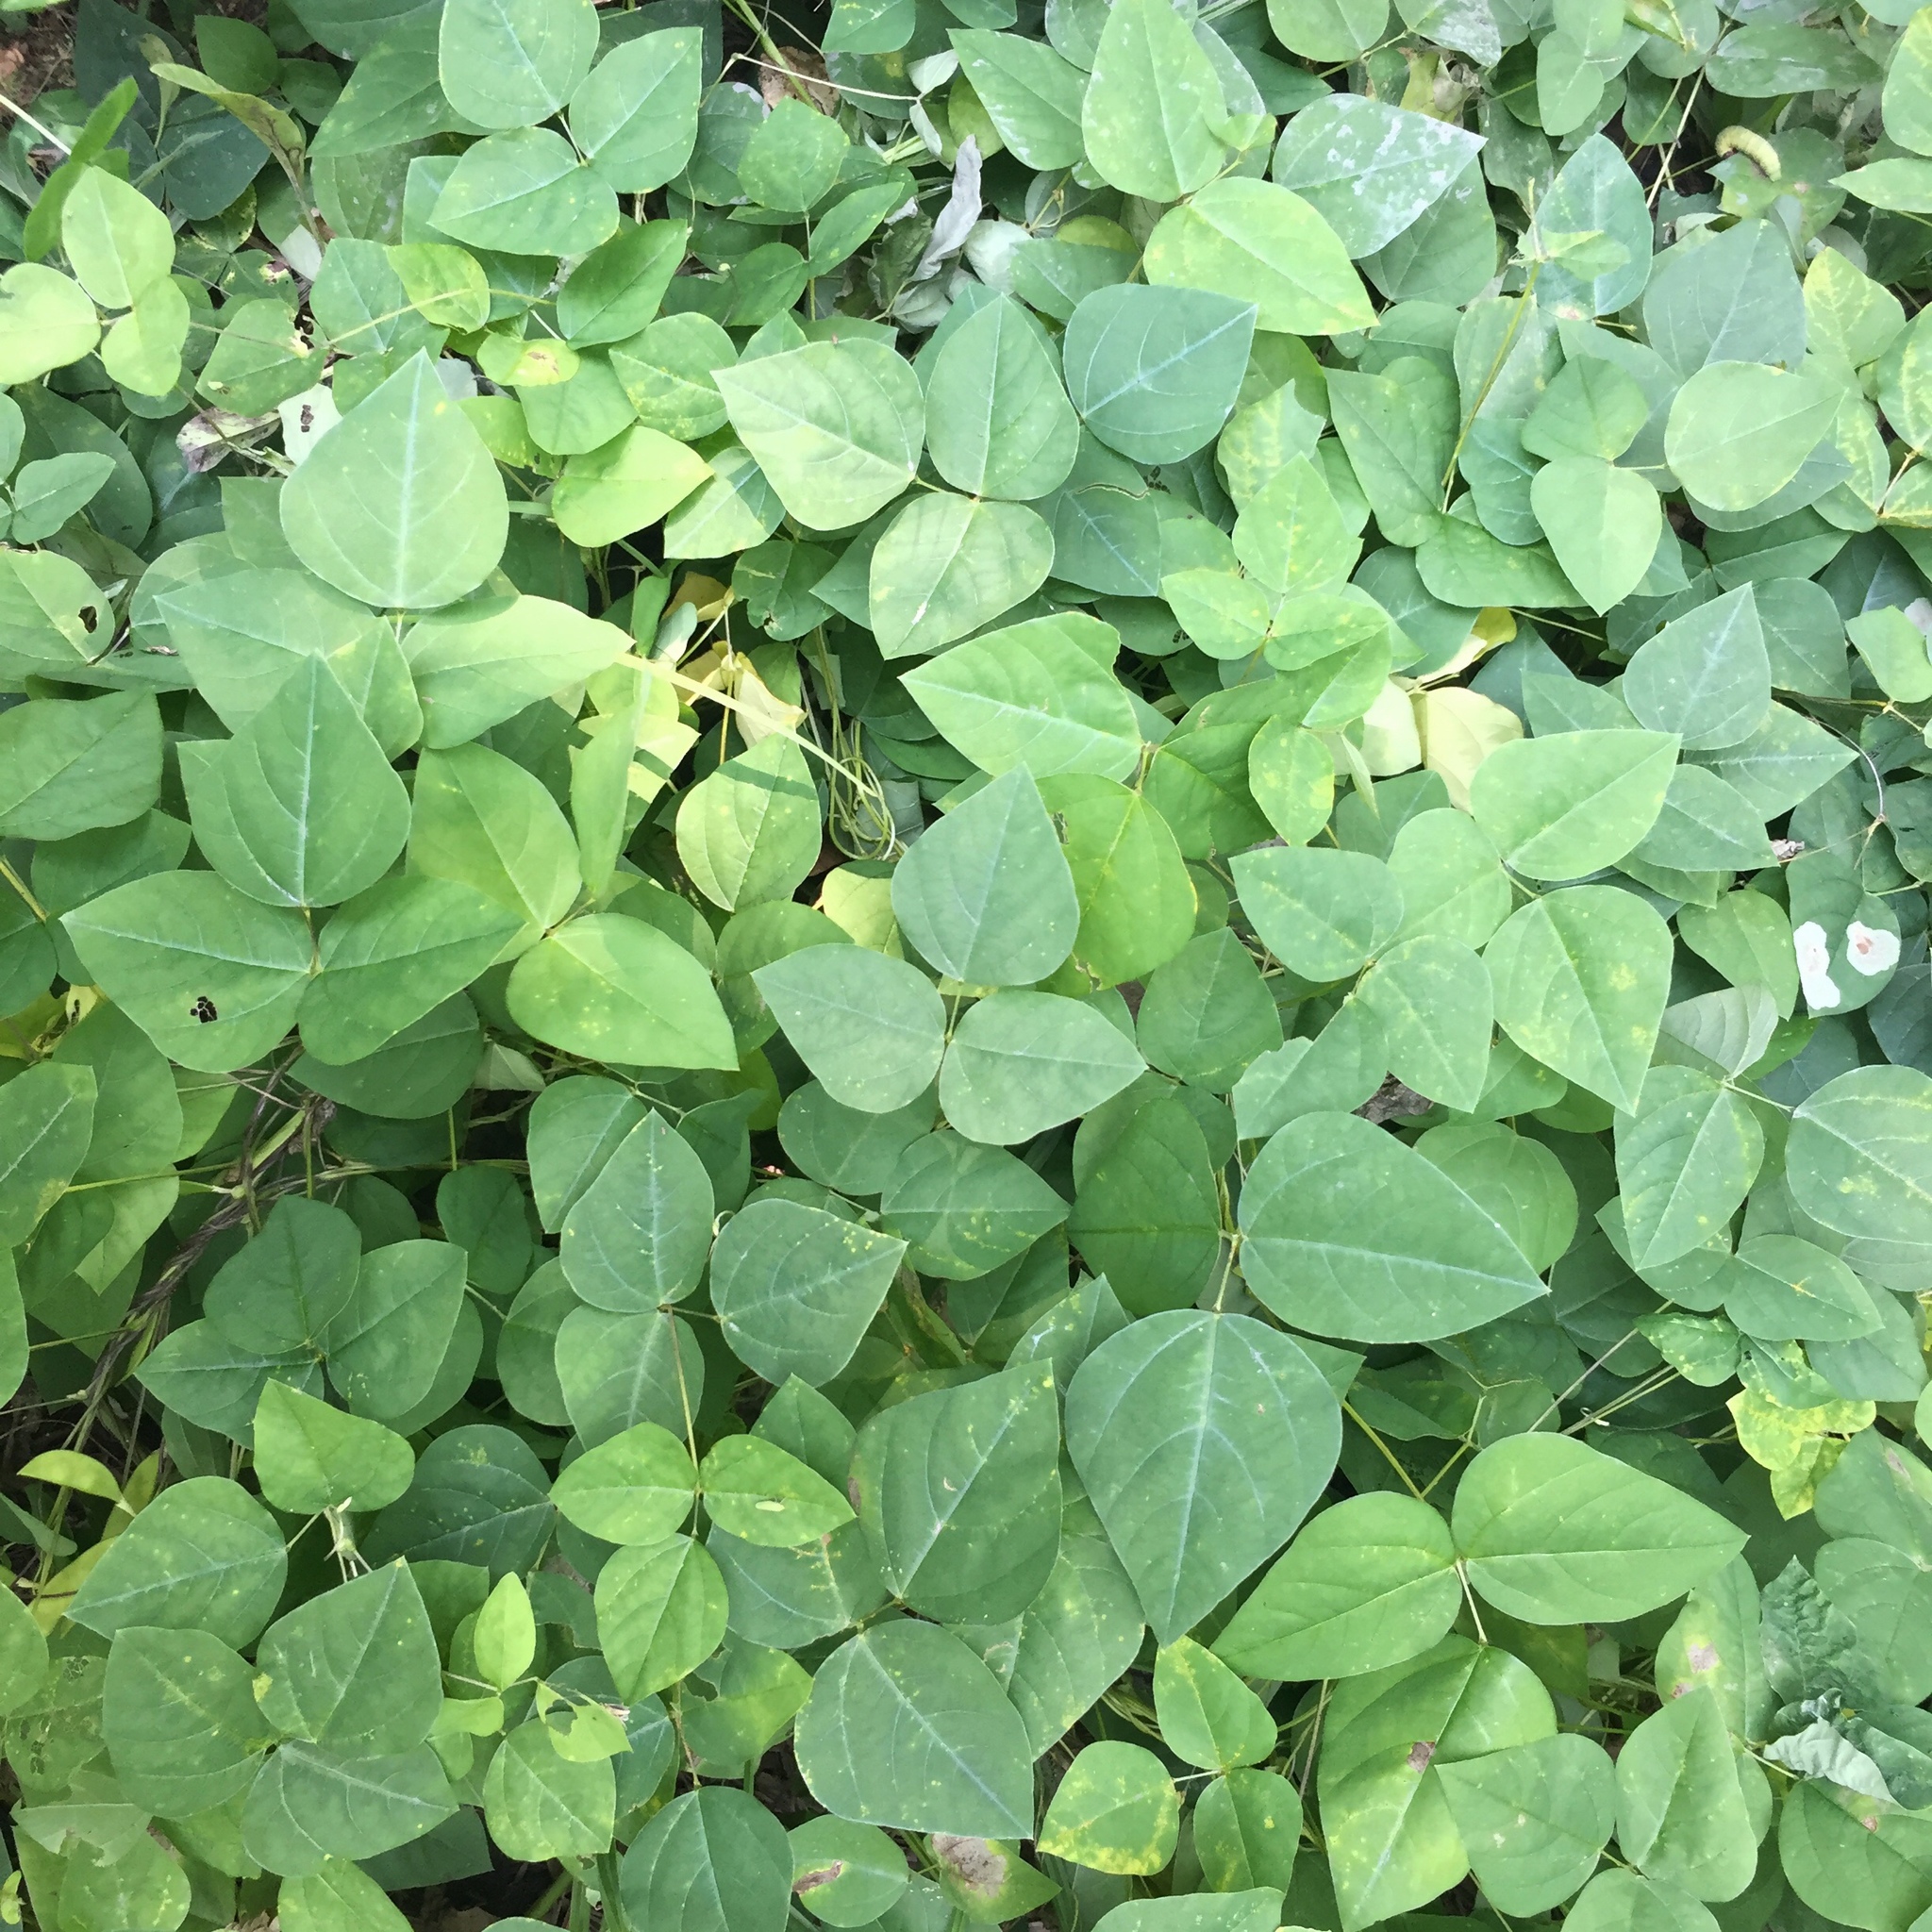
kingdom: Plantae
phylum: Tracheophyta
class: Magnoliopsida
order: Fabales
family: Fabaceae
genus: Amphicarpaea
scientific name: Amphicarpaea bracteata
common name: American hog peanut
